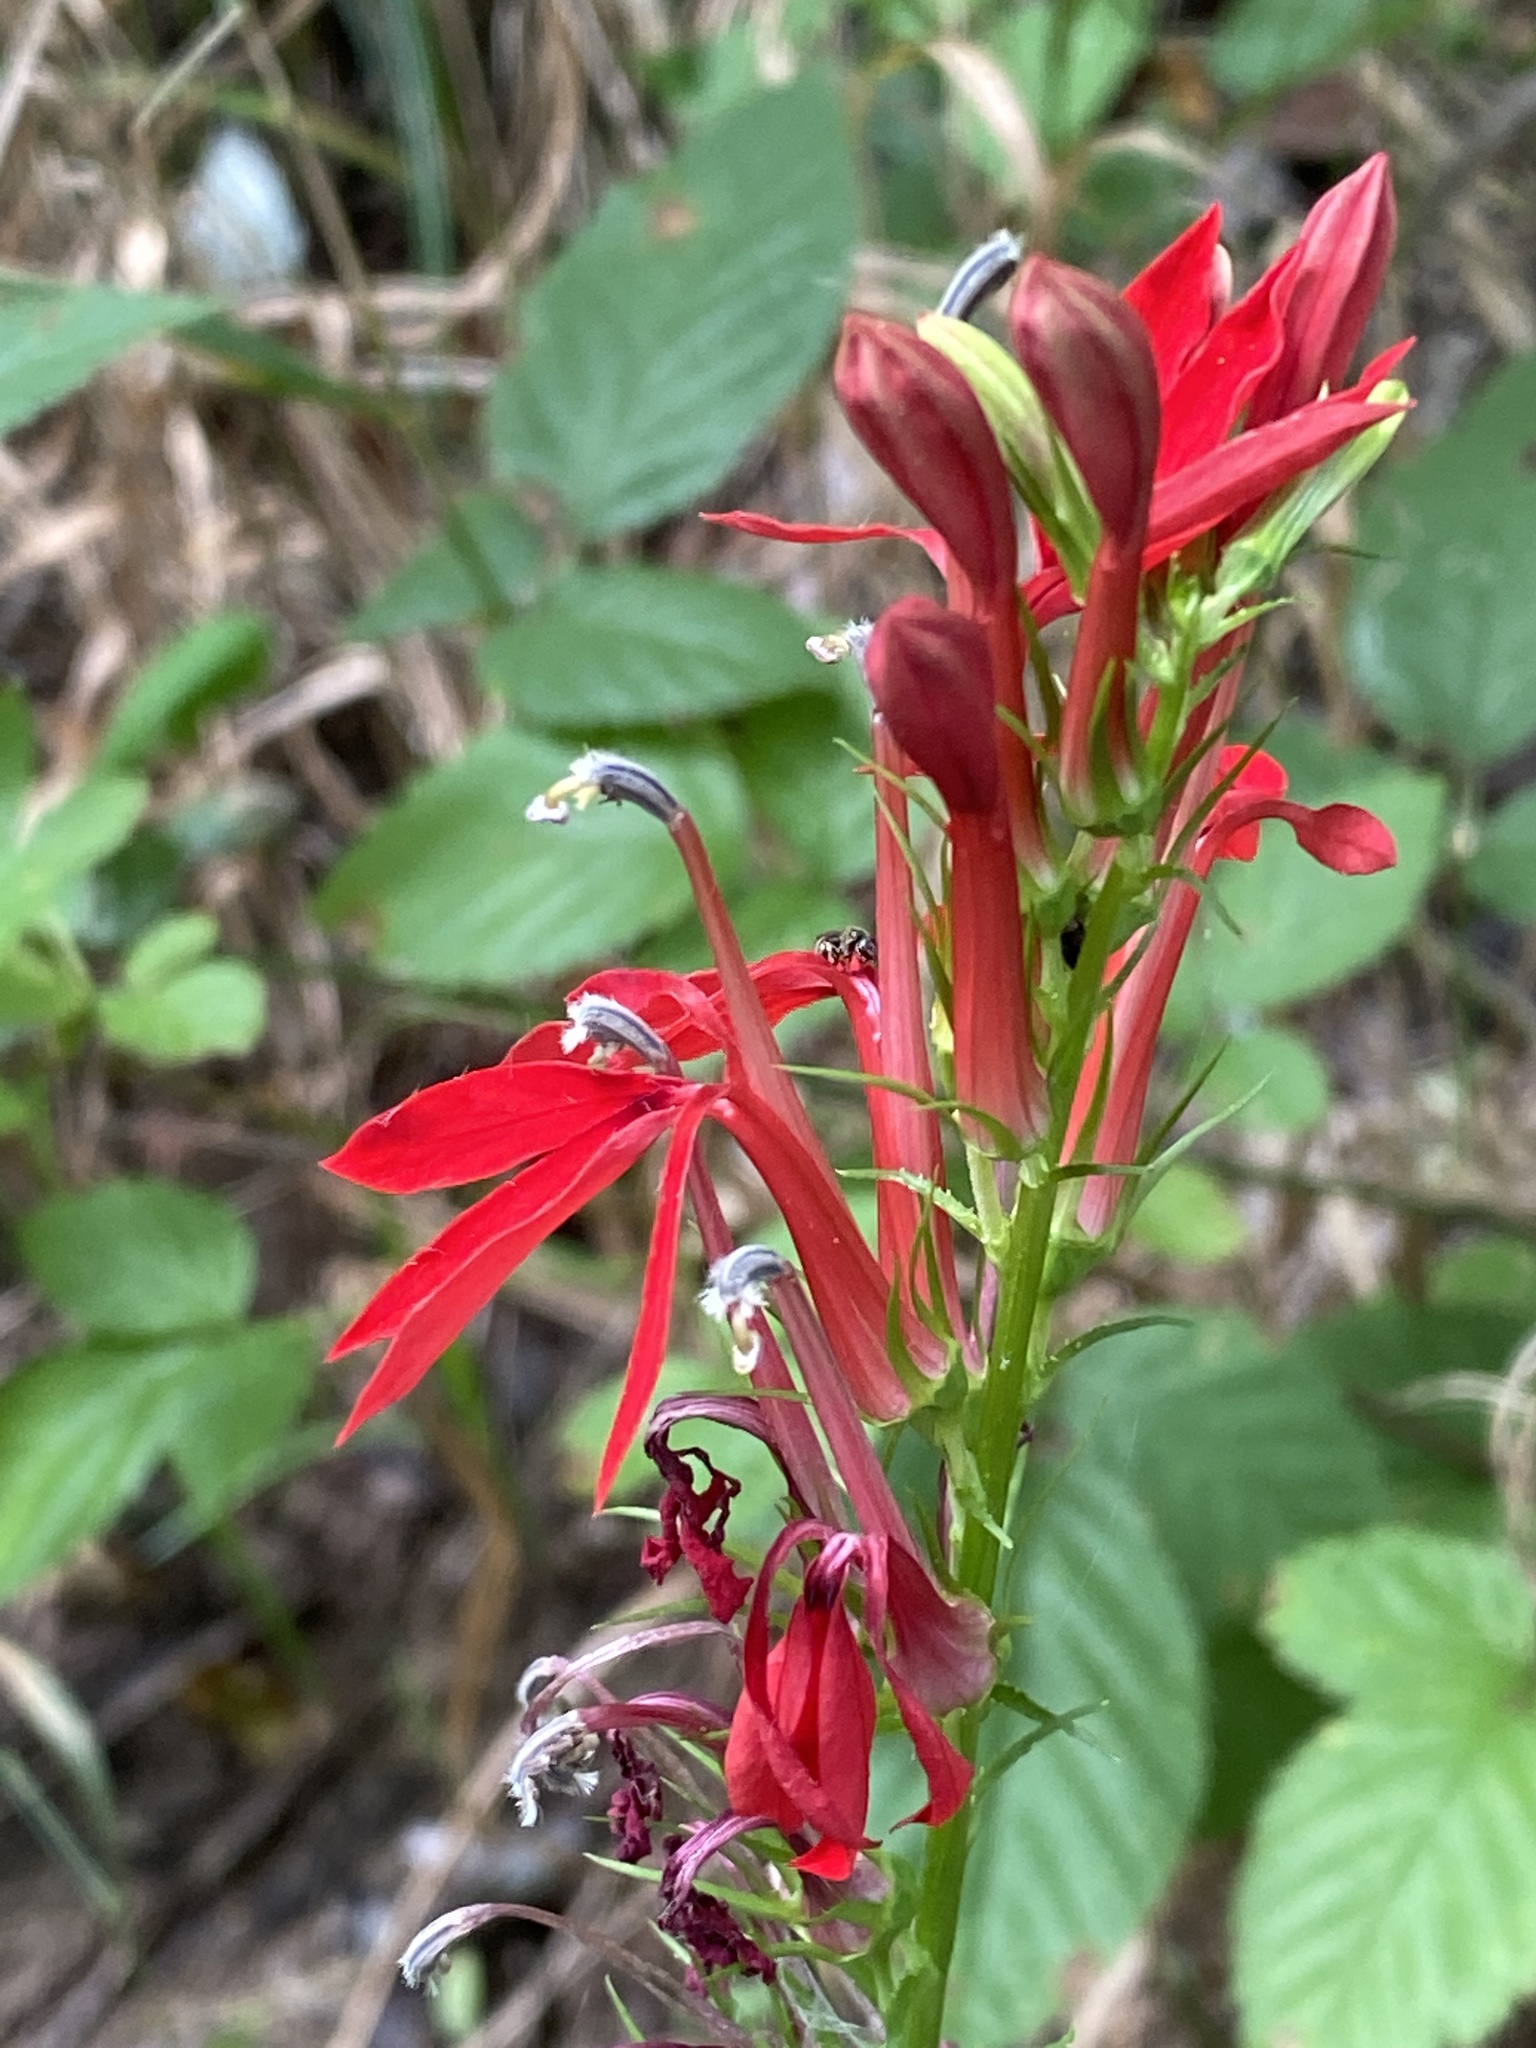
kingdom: Plantae
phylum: Tracheophyta
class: Magnoliopsida
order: Asterales
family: Campanulaceae
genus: Lobelia
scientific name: Lobelia cardinalis
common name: Cardinal flower
